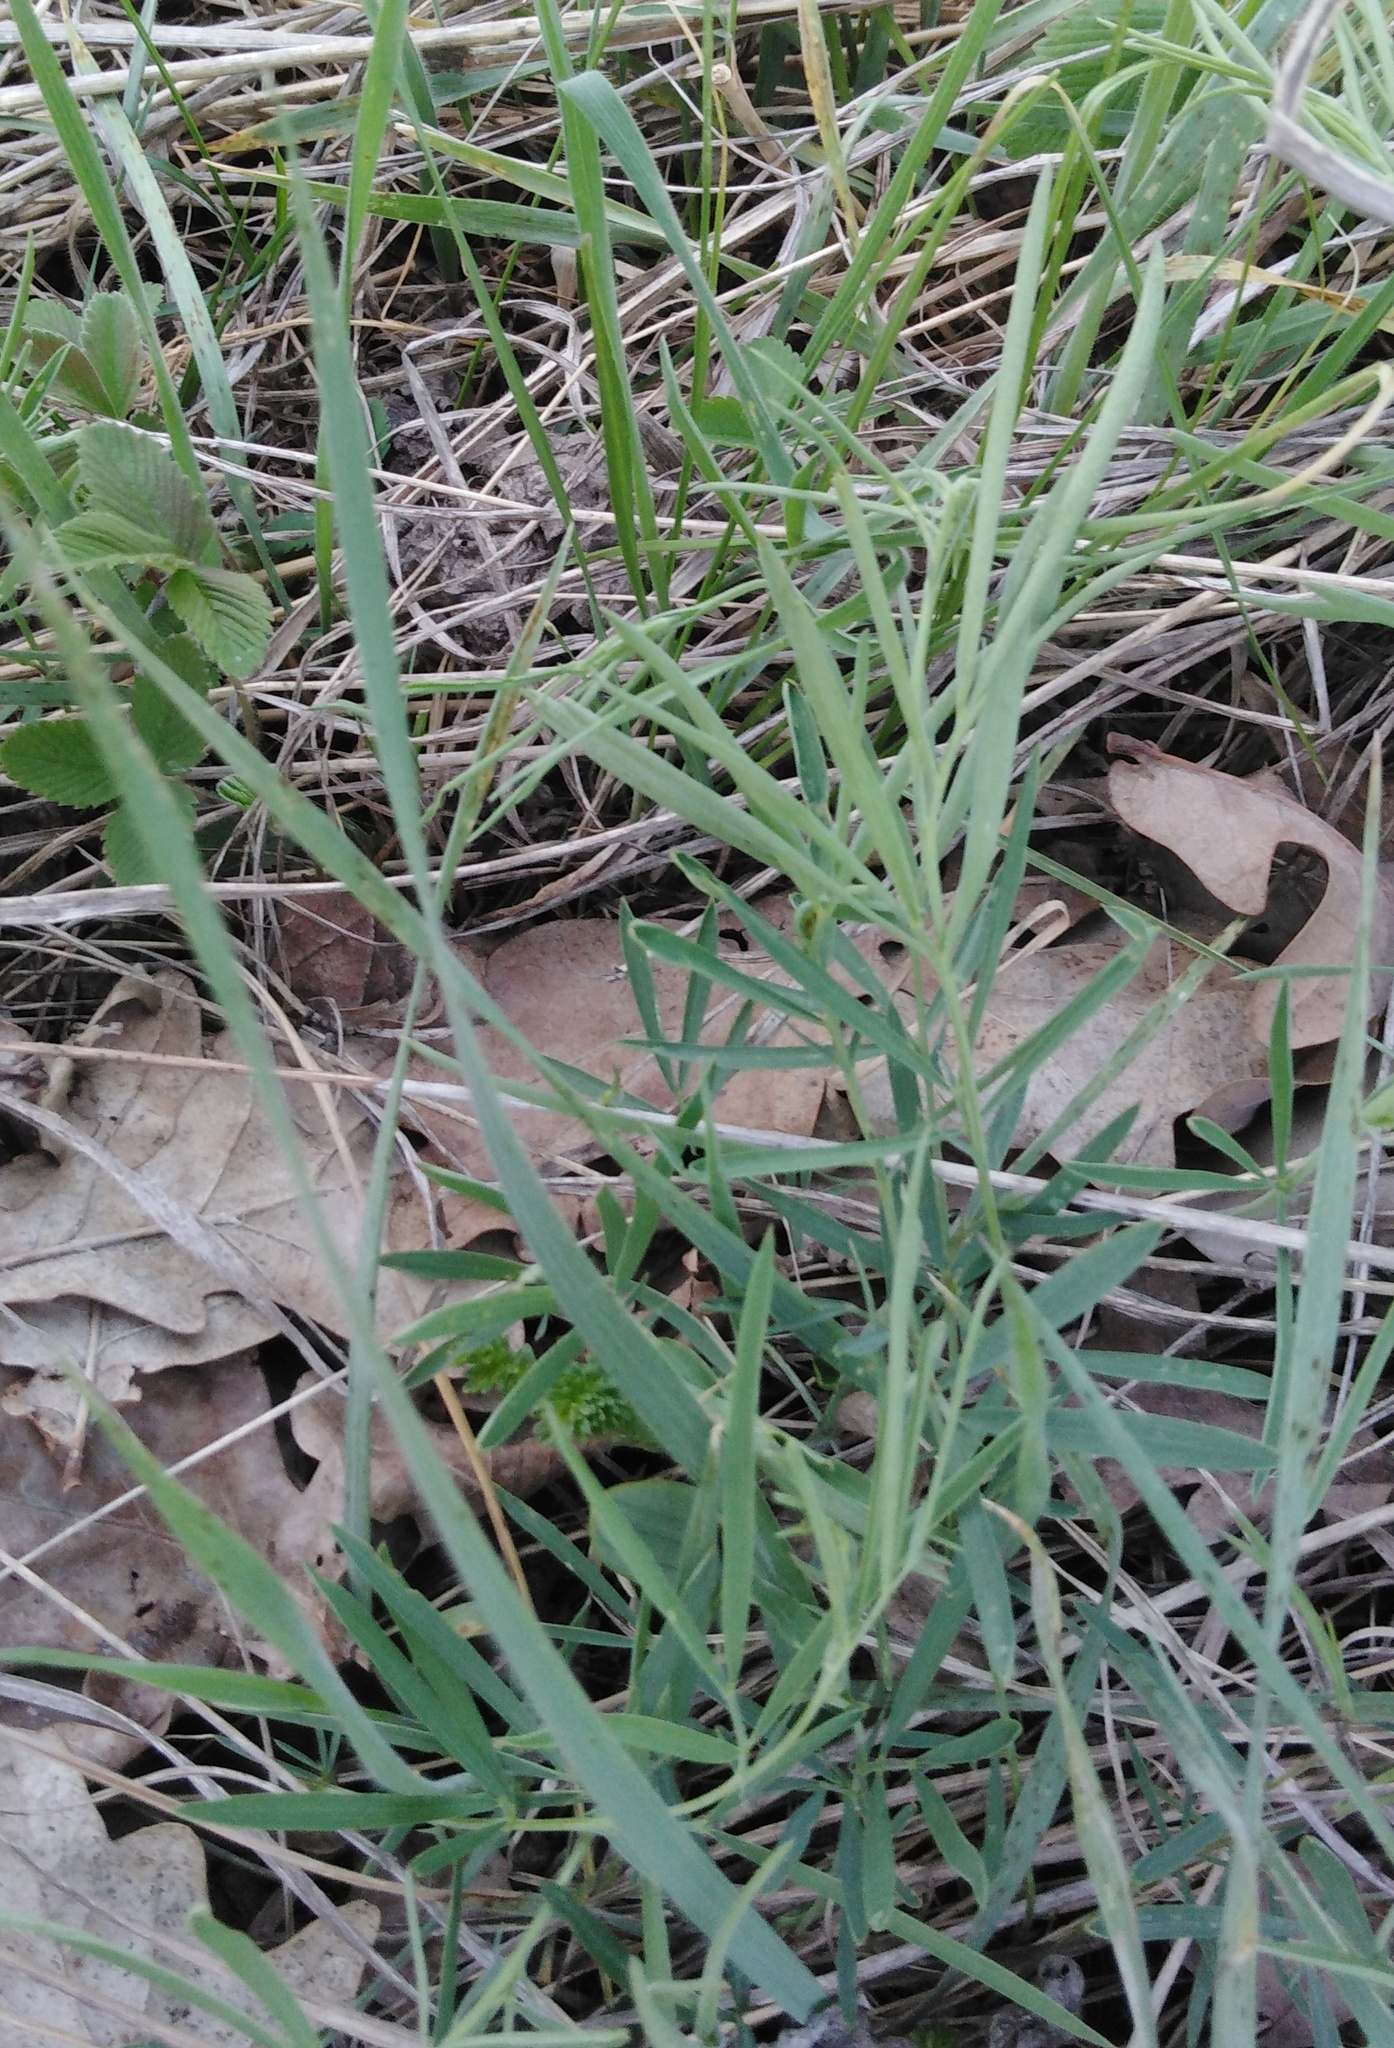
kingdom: Plantae
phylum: Tracheophyta
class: Magnoliopsida
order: Fabales
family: Fabaceae
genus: Lathyrus
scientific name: Lathyrus pallescens
